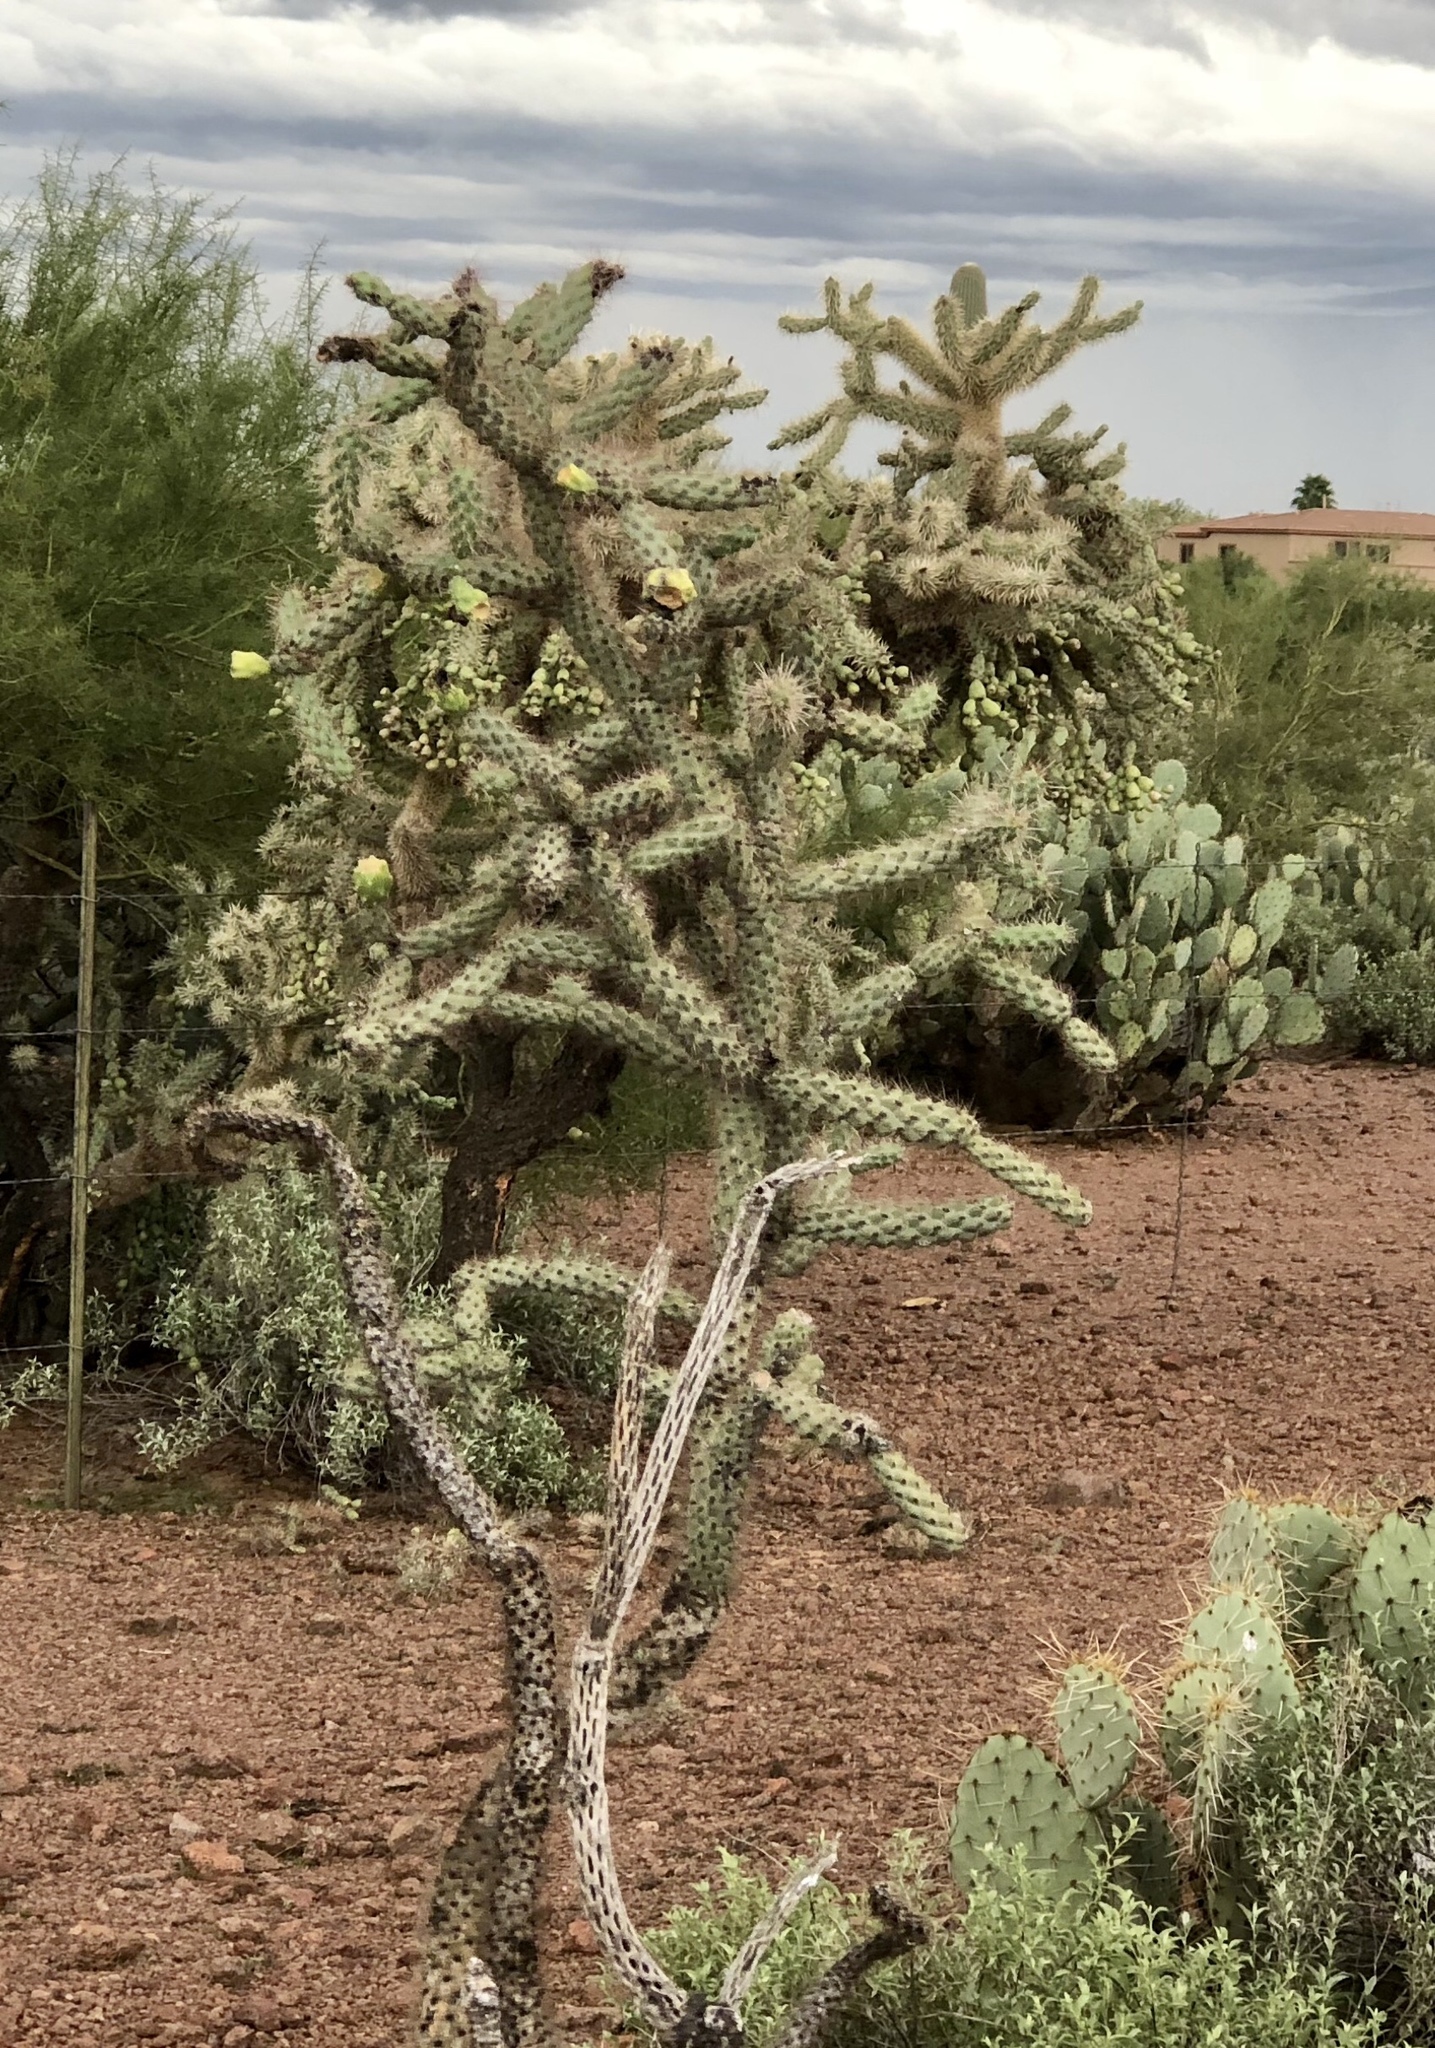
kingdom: Plantae
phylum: Tracheophyta
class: Magnoliopsida
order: Caryophyllales
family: Cactaceae
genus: Cylindropuntia
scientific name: Cylindropuntia fulgida
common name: Jumping cholla
